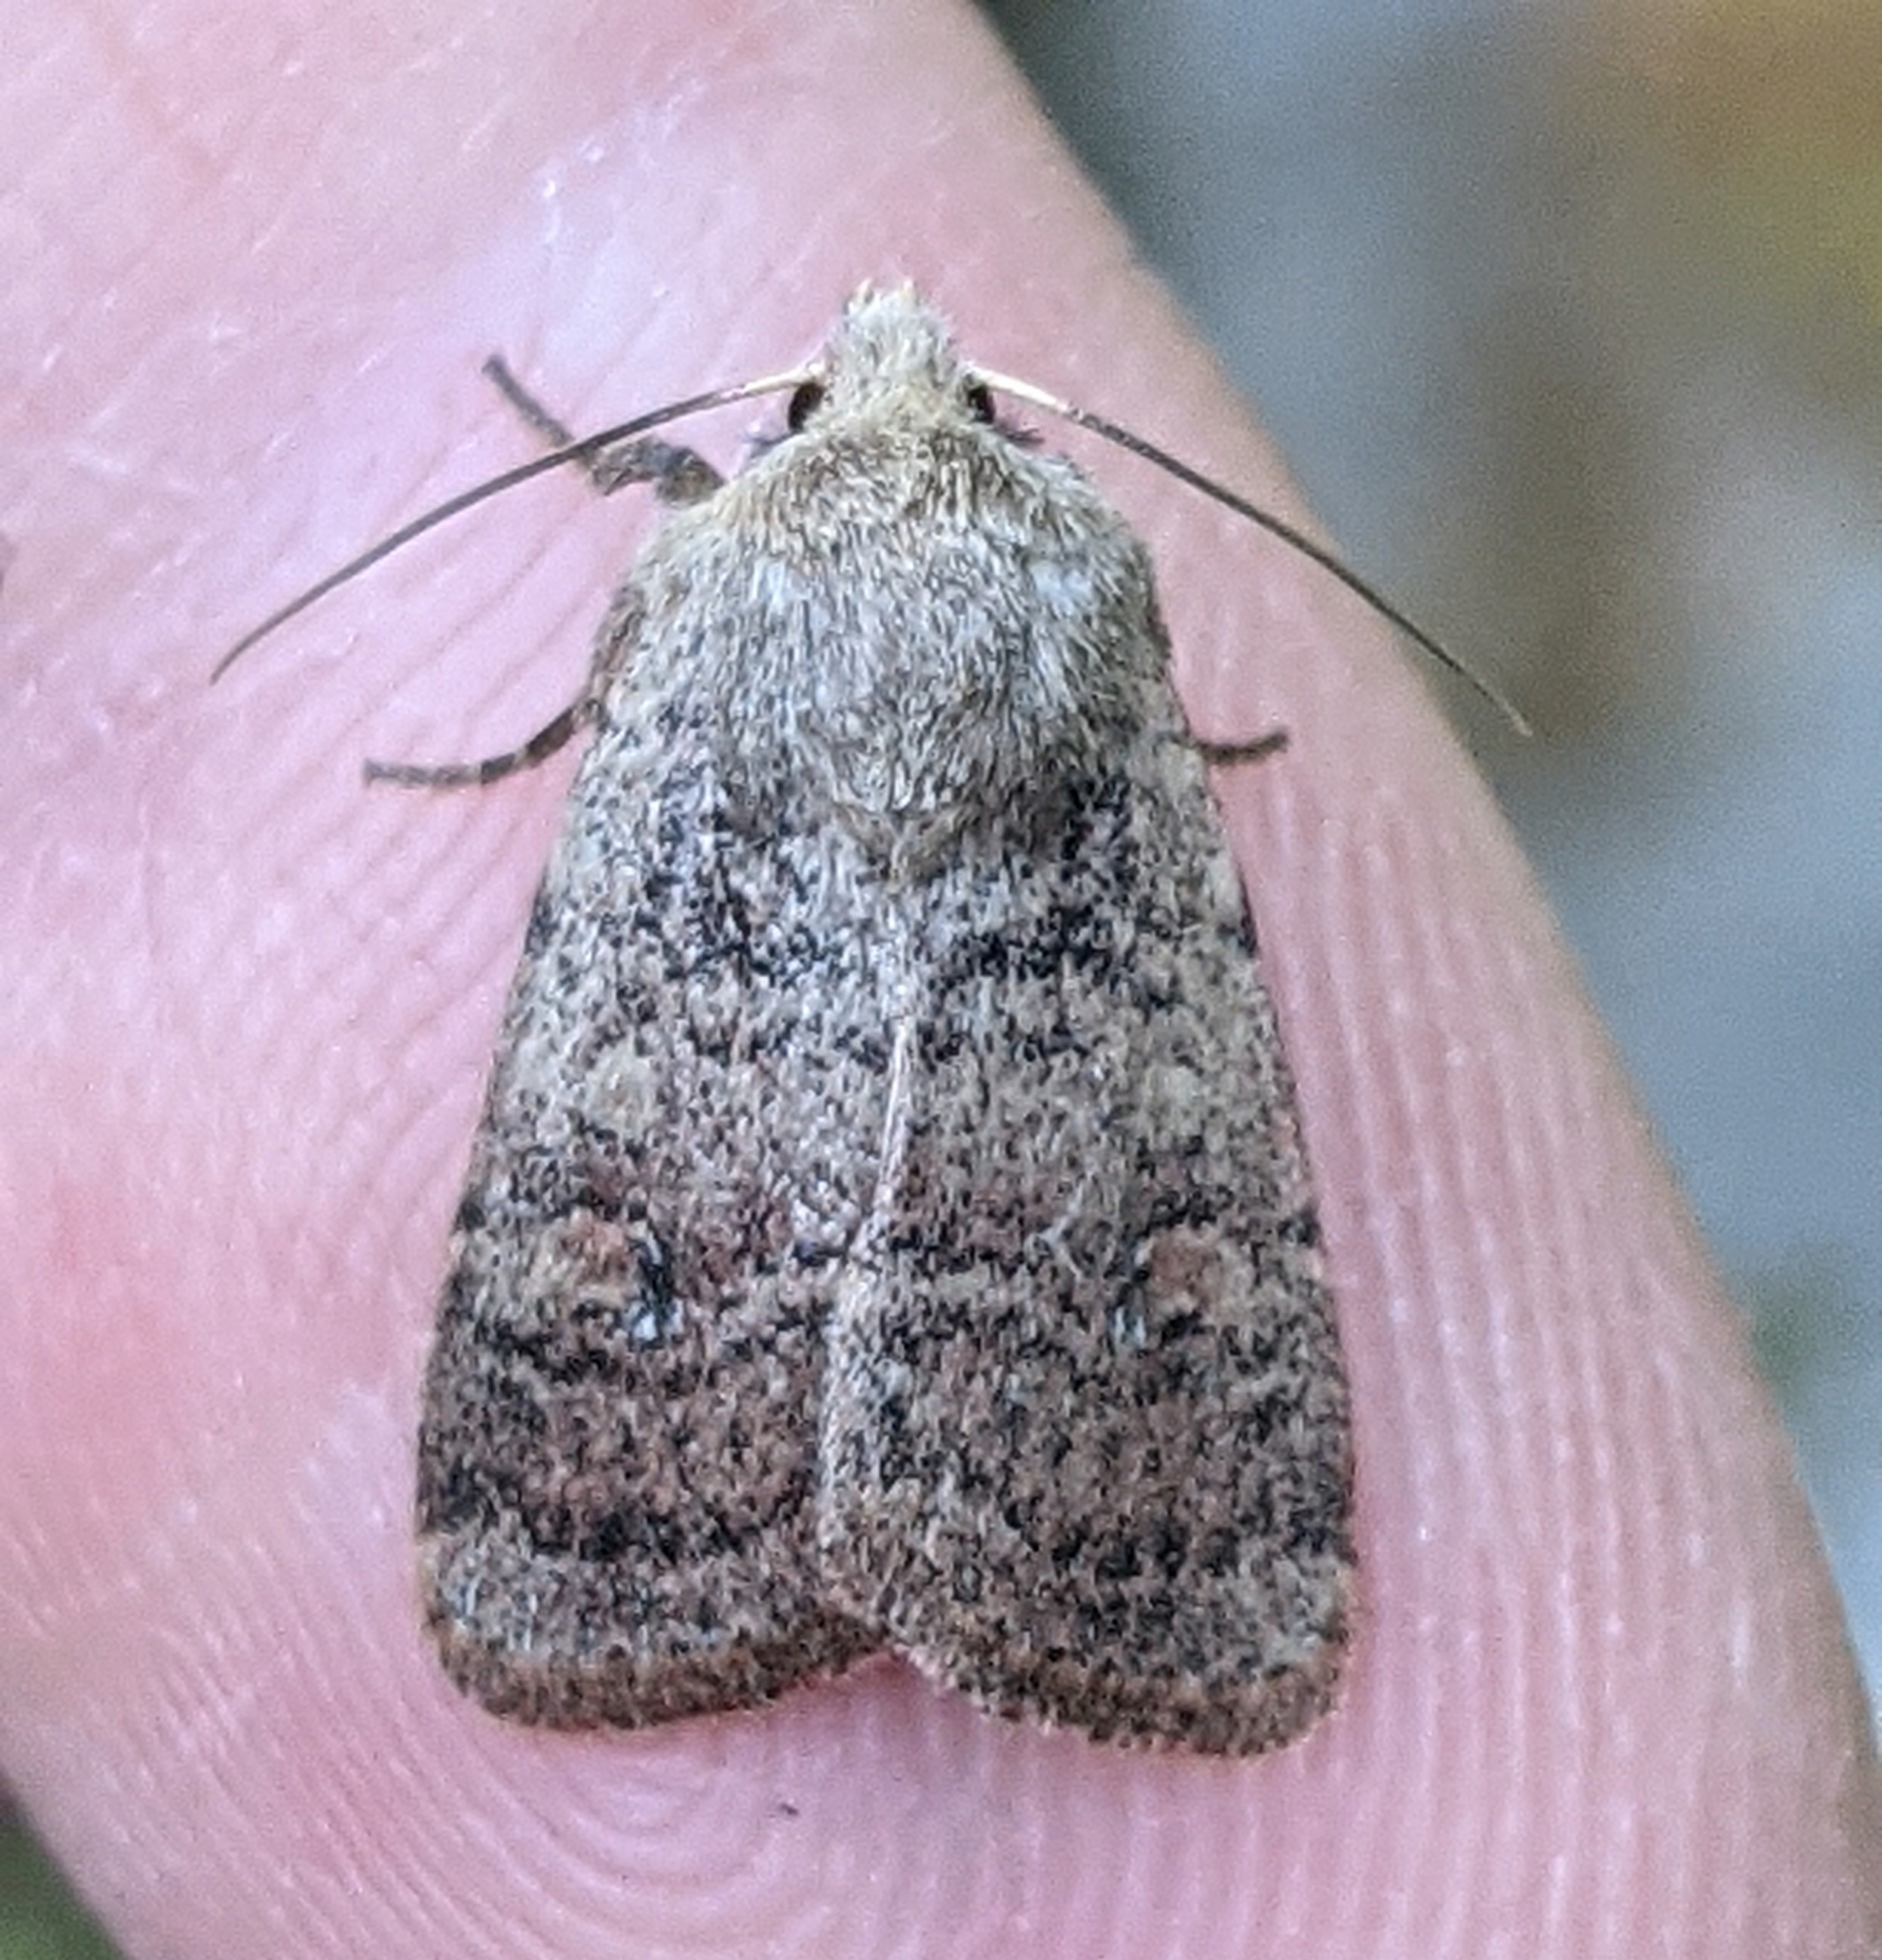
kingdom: Animalia
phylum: Arthropoda
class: Insecta
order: Lepidoptera
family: Noctuidae
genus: Homorthodes
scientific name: Homorthodes fractura
